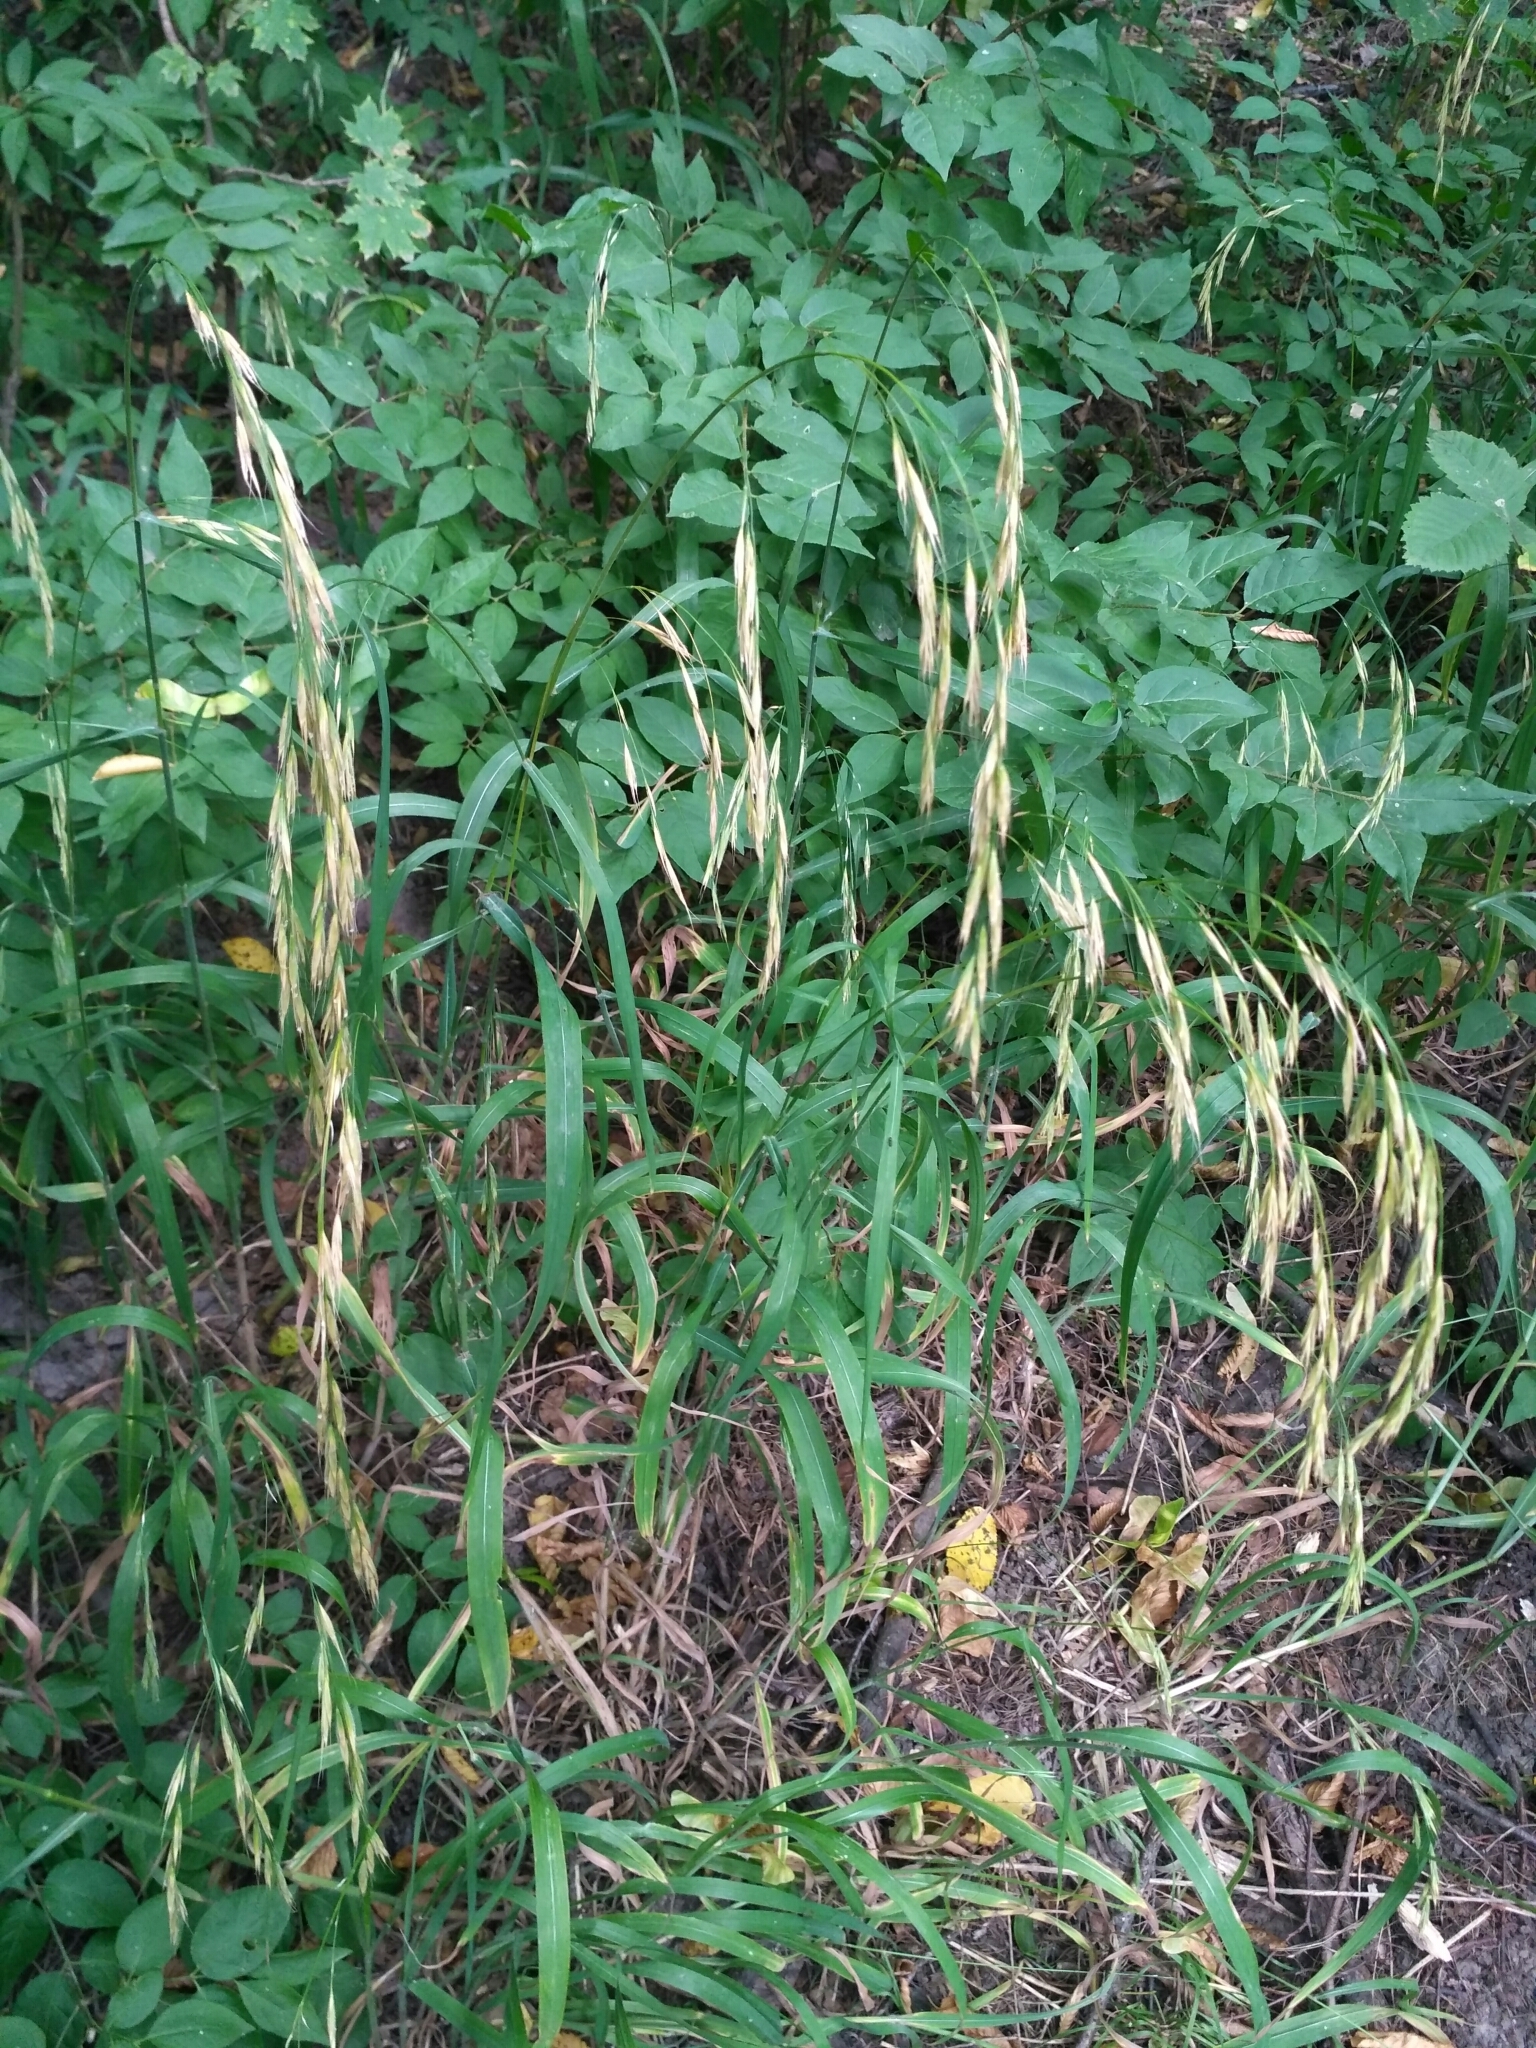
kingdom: Plantae
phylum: Tracheophyta
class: Liliopsida
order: Poales
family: Poaceae
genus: Bromus
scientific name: Bromus benekenii
